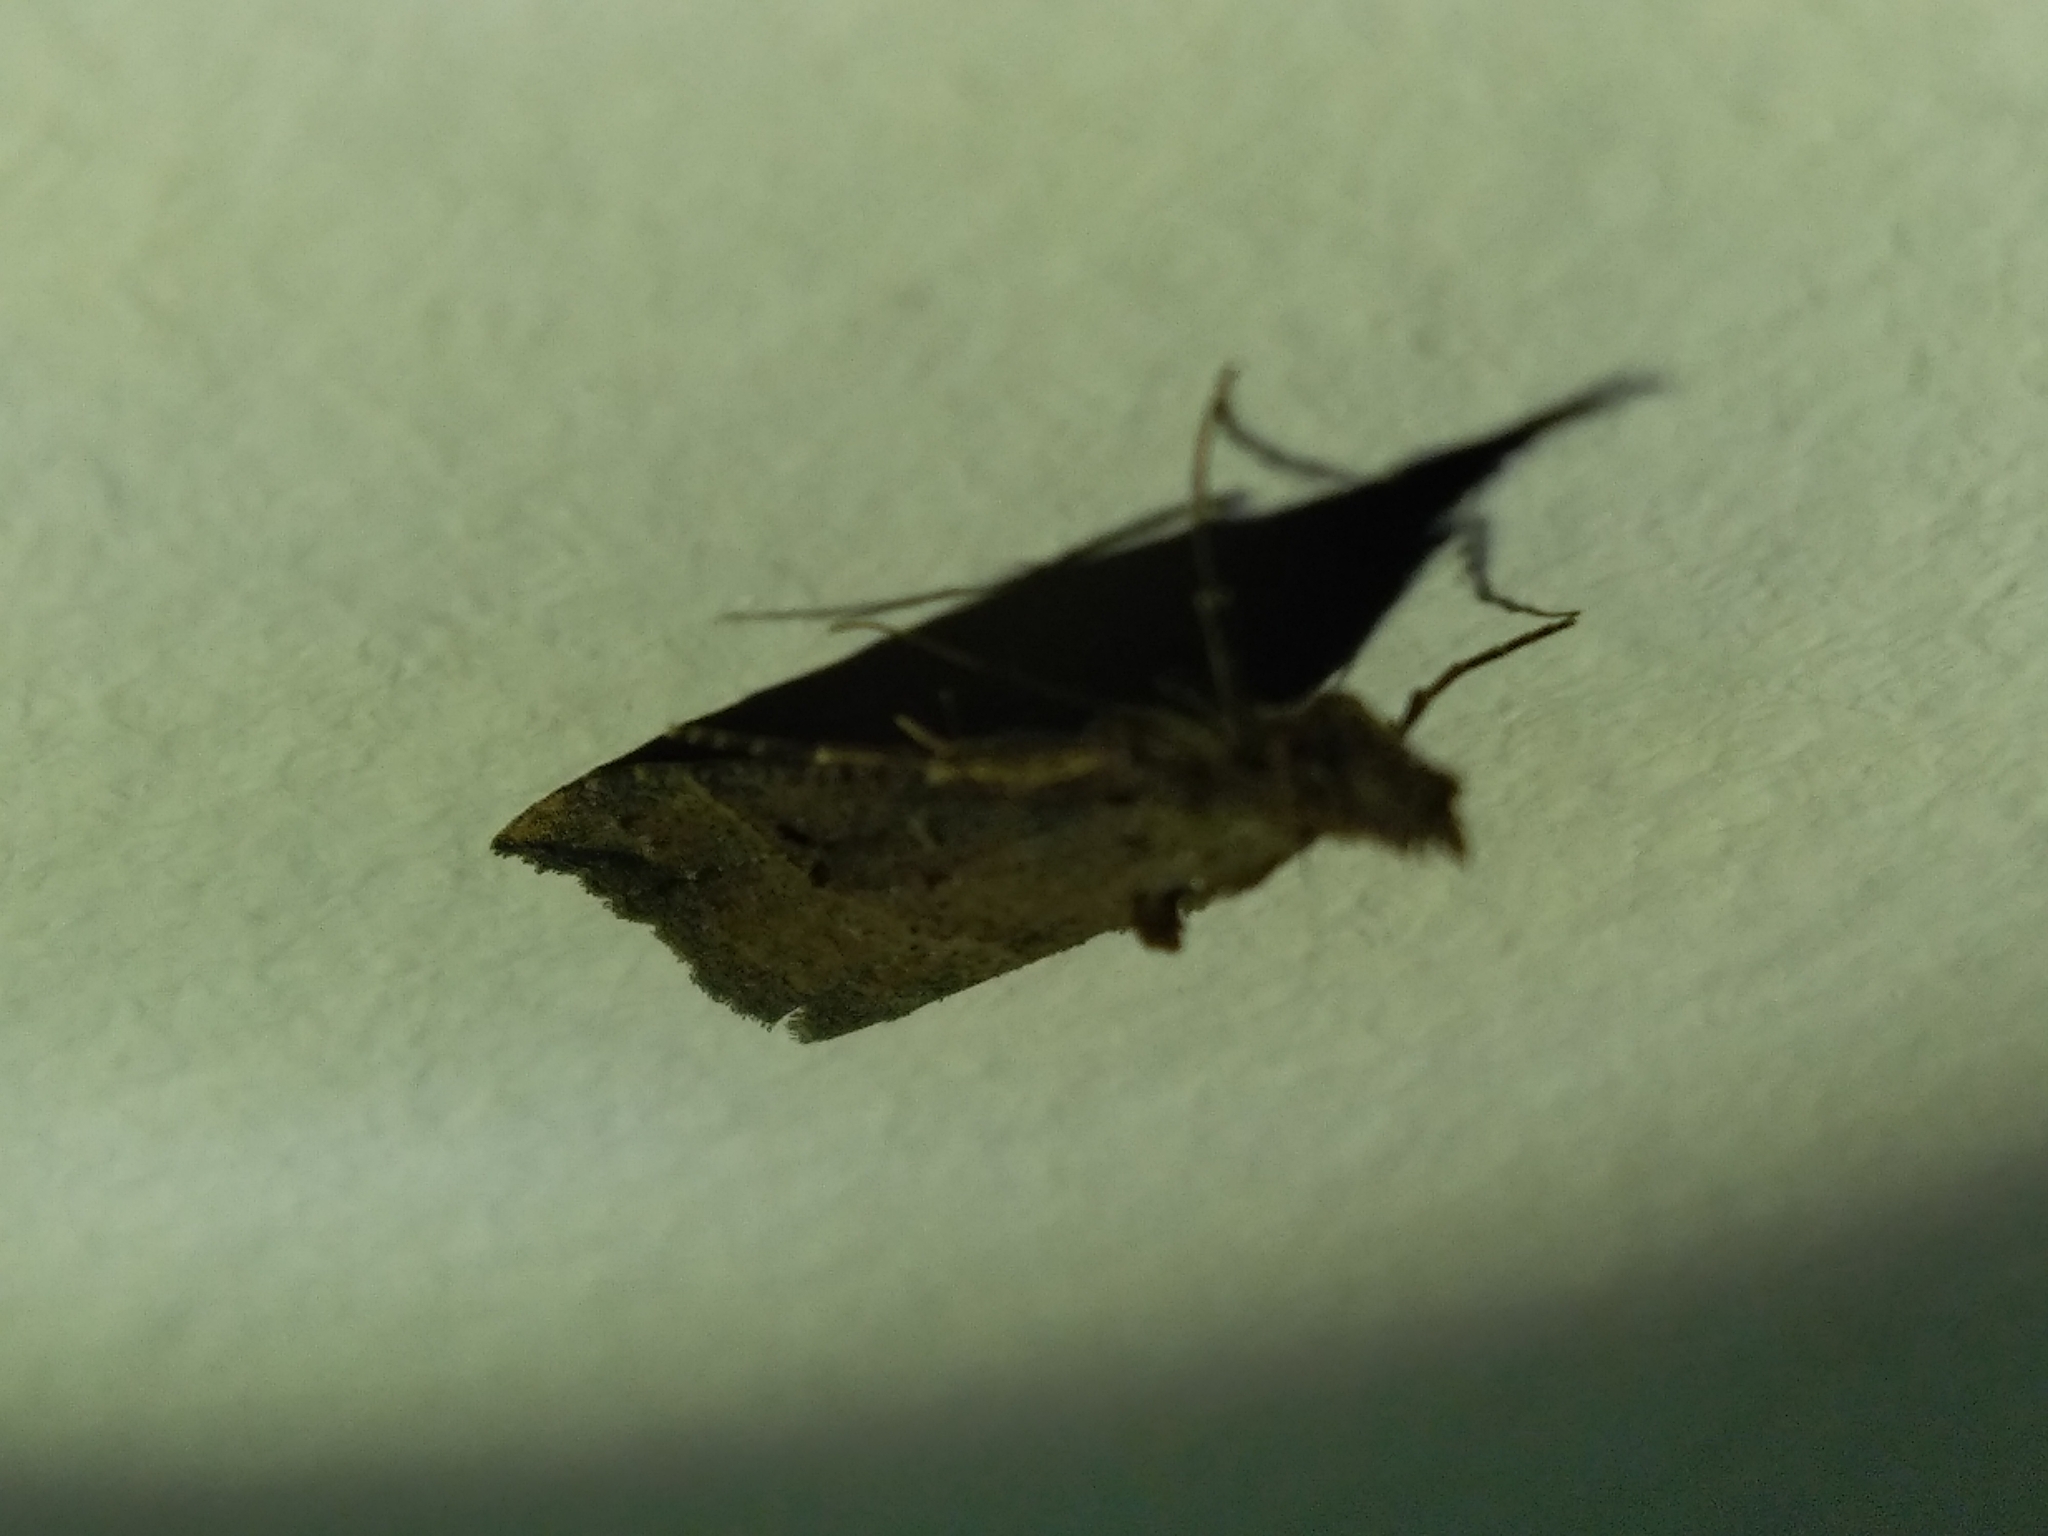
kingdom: Animalia
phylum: Arthropoda
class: Insecta
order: Lepidoptera
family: Erebidae
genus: Hypena
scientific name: Hypena rostralis
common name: Buttoned snout
